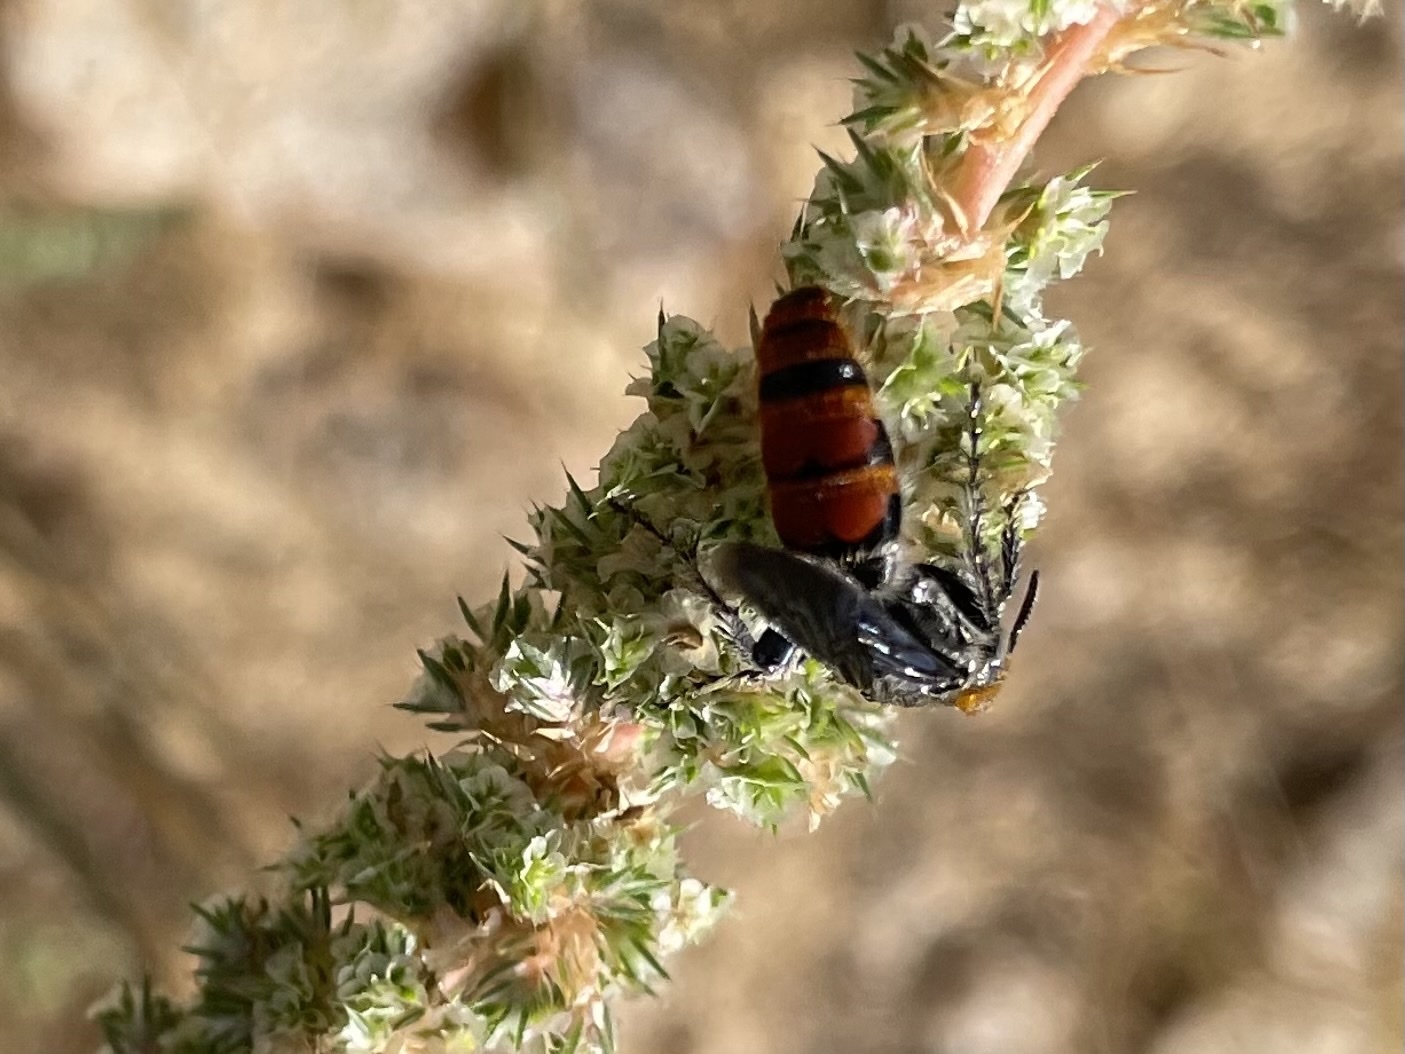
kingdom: Animalia
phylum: Arthropoda
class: Insecta
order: Hymenoptera
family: Scoliidae
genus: Dielis
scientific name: Dielis tolteca
